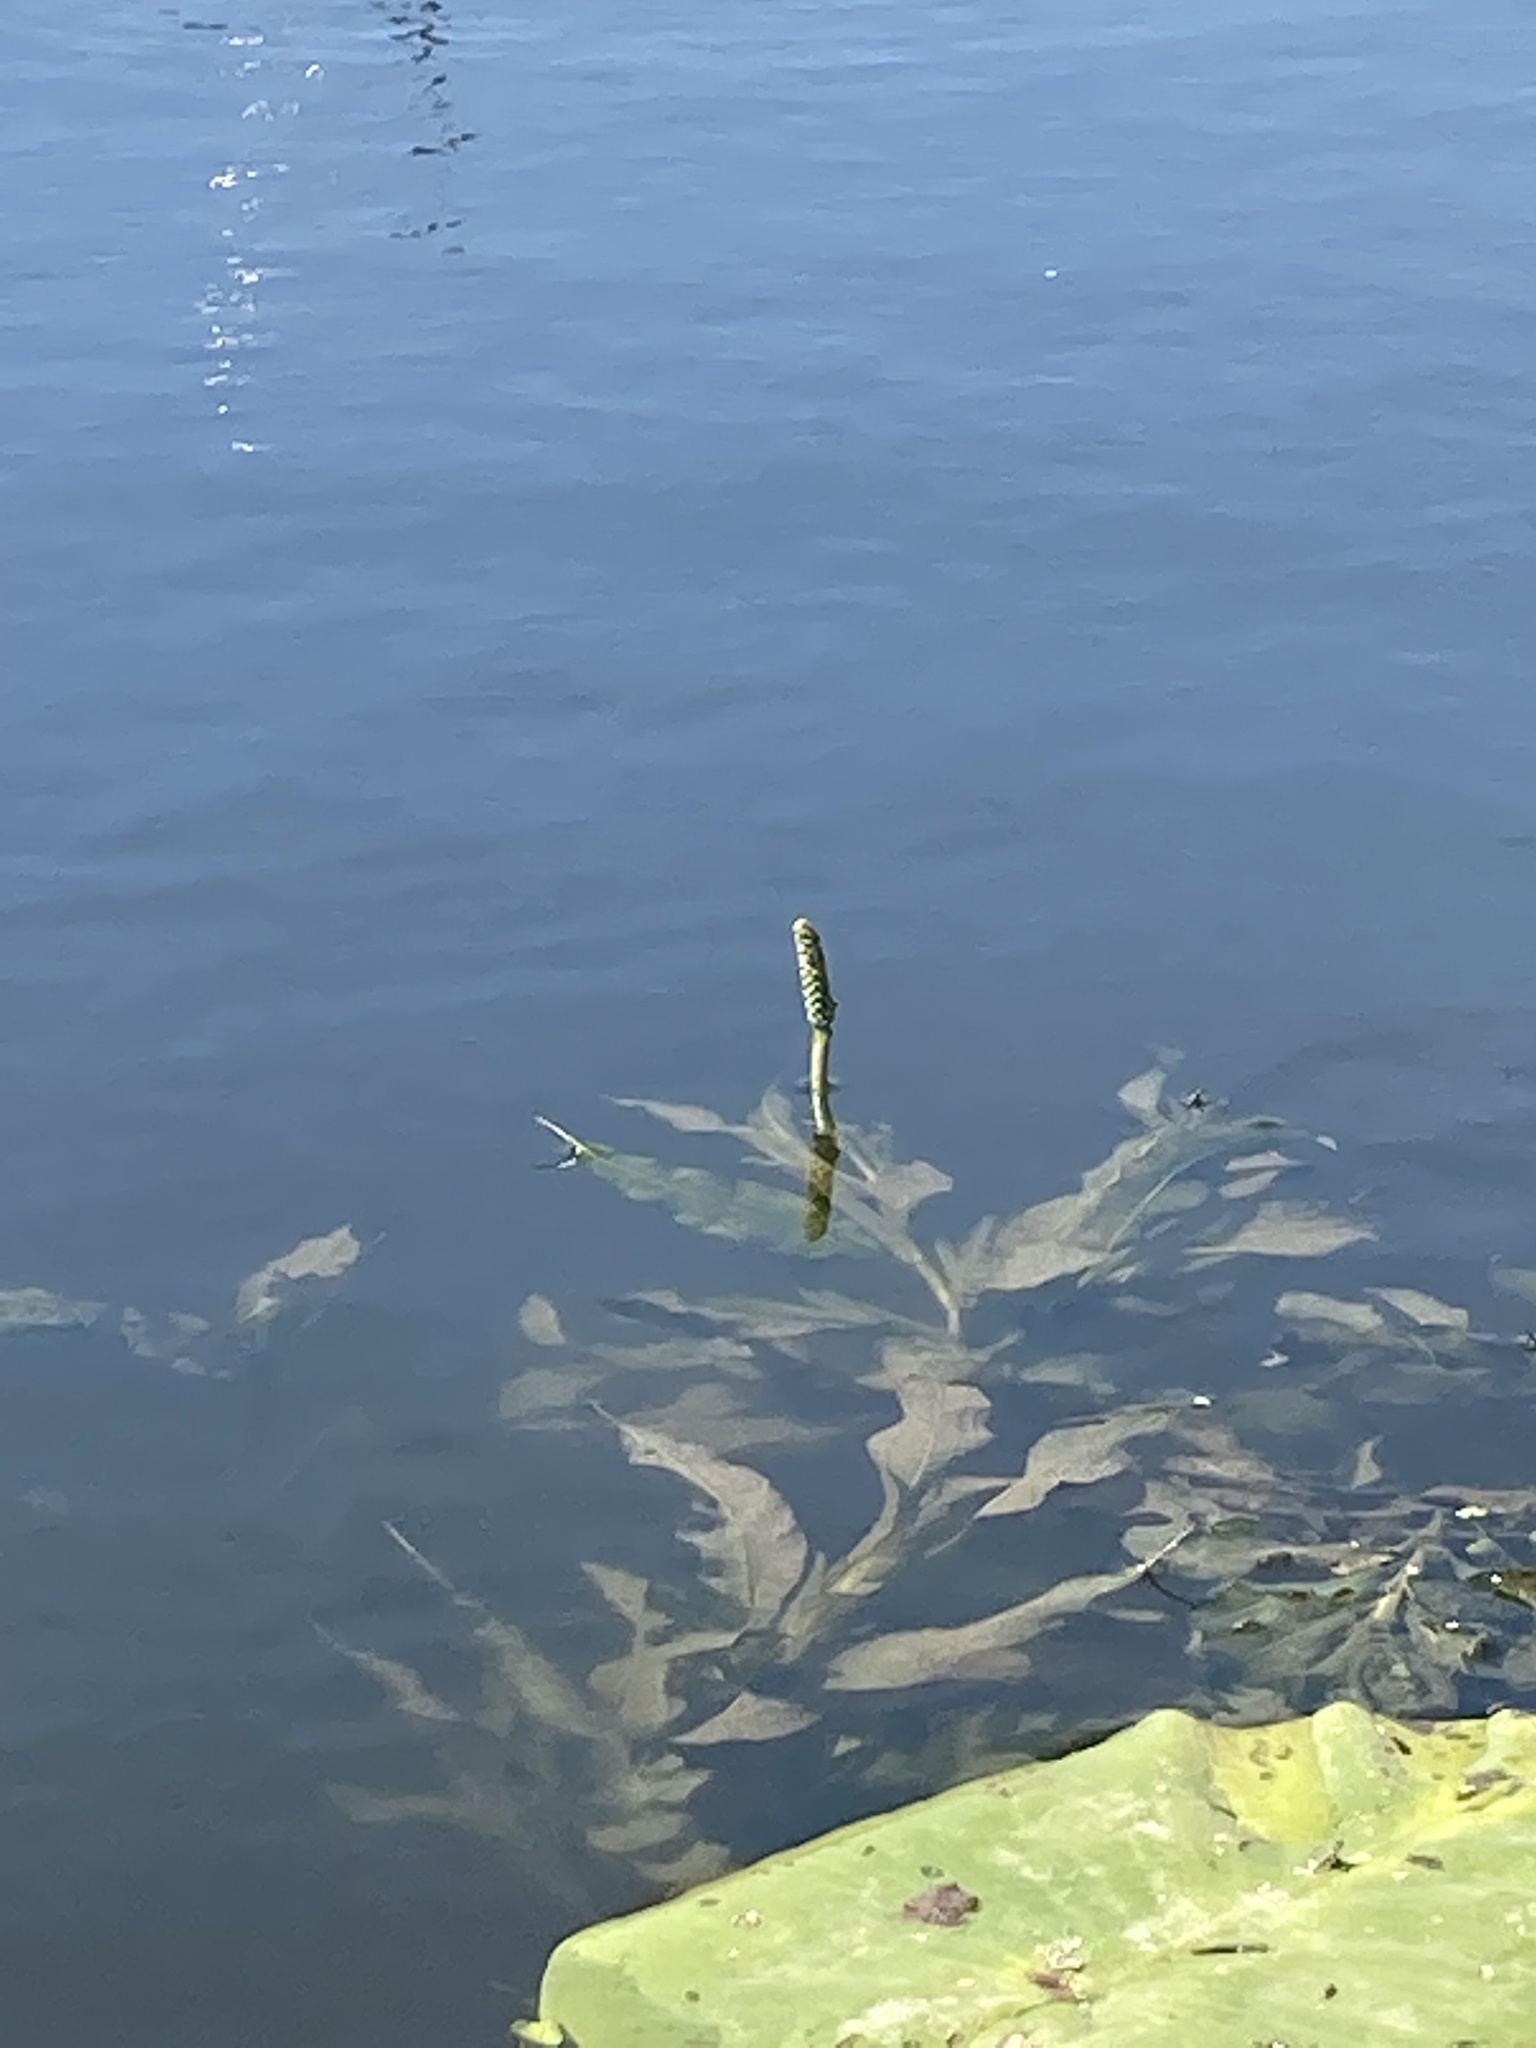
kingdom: Plantae
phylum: Tracheophyta
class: Liliopsida
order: Alismatales
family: Potamogetonaceae
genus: Potamogeton
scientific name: Potamogeton lucens
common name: Shining pondweed
